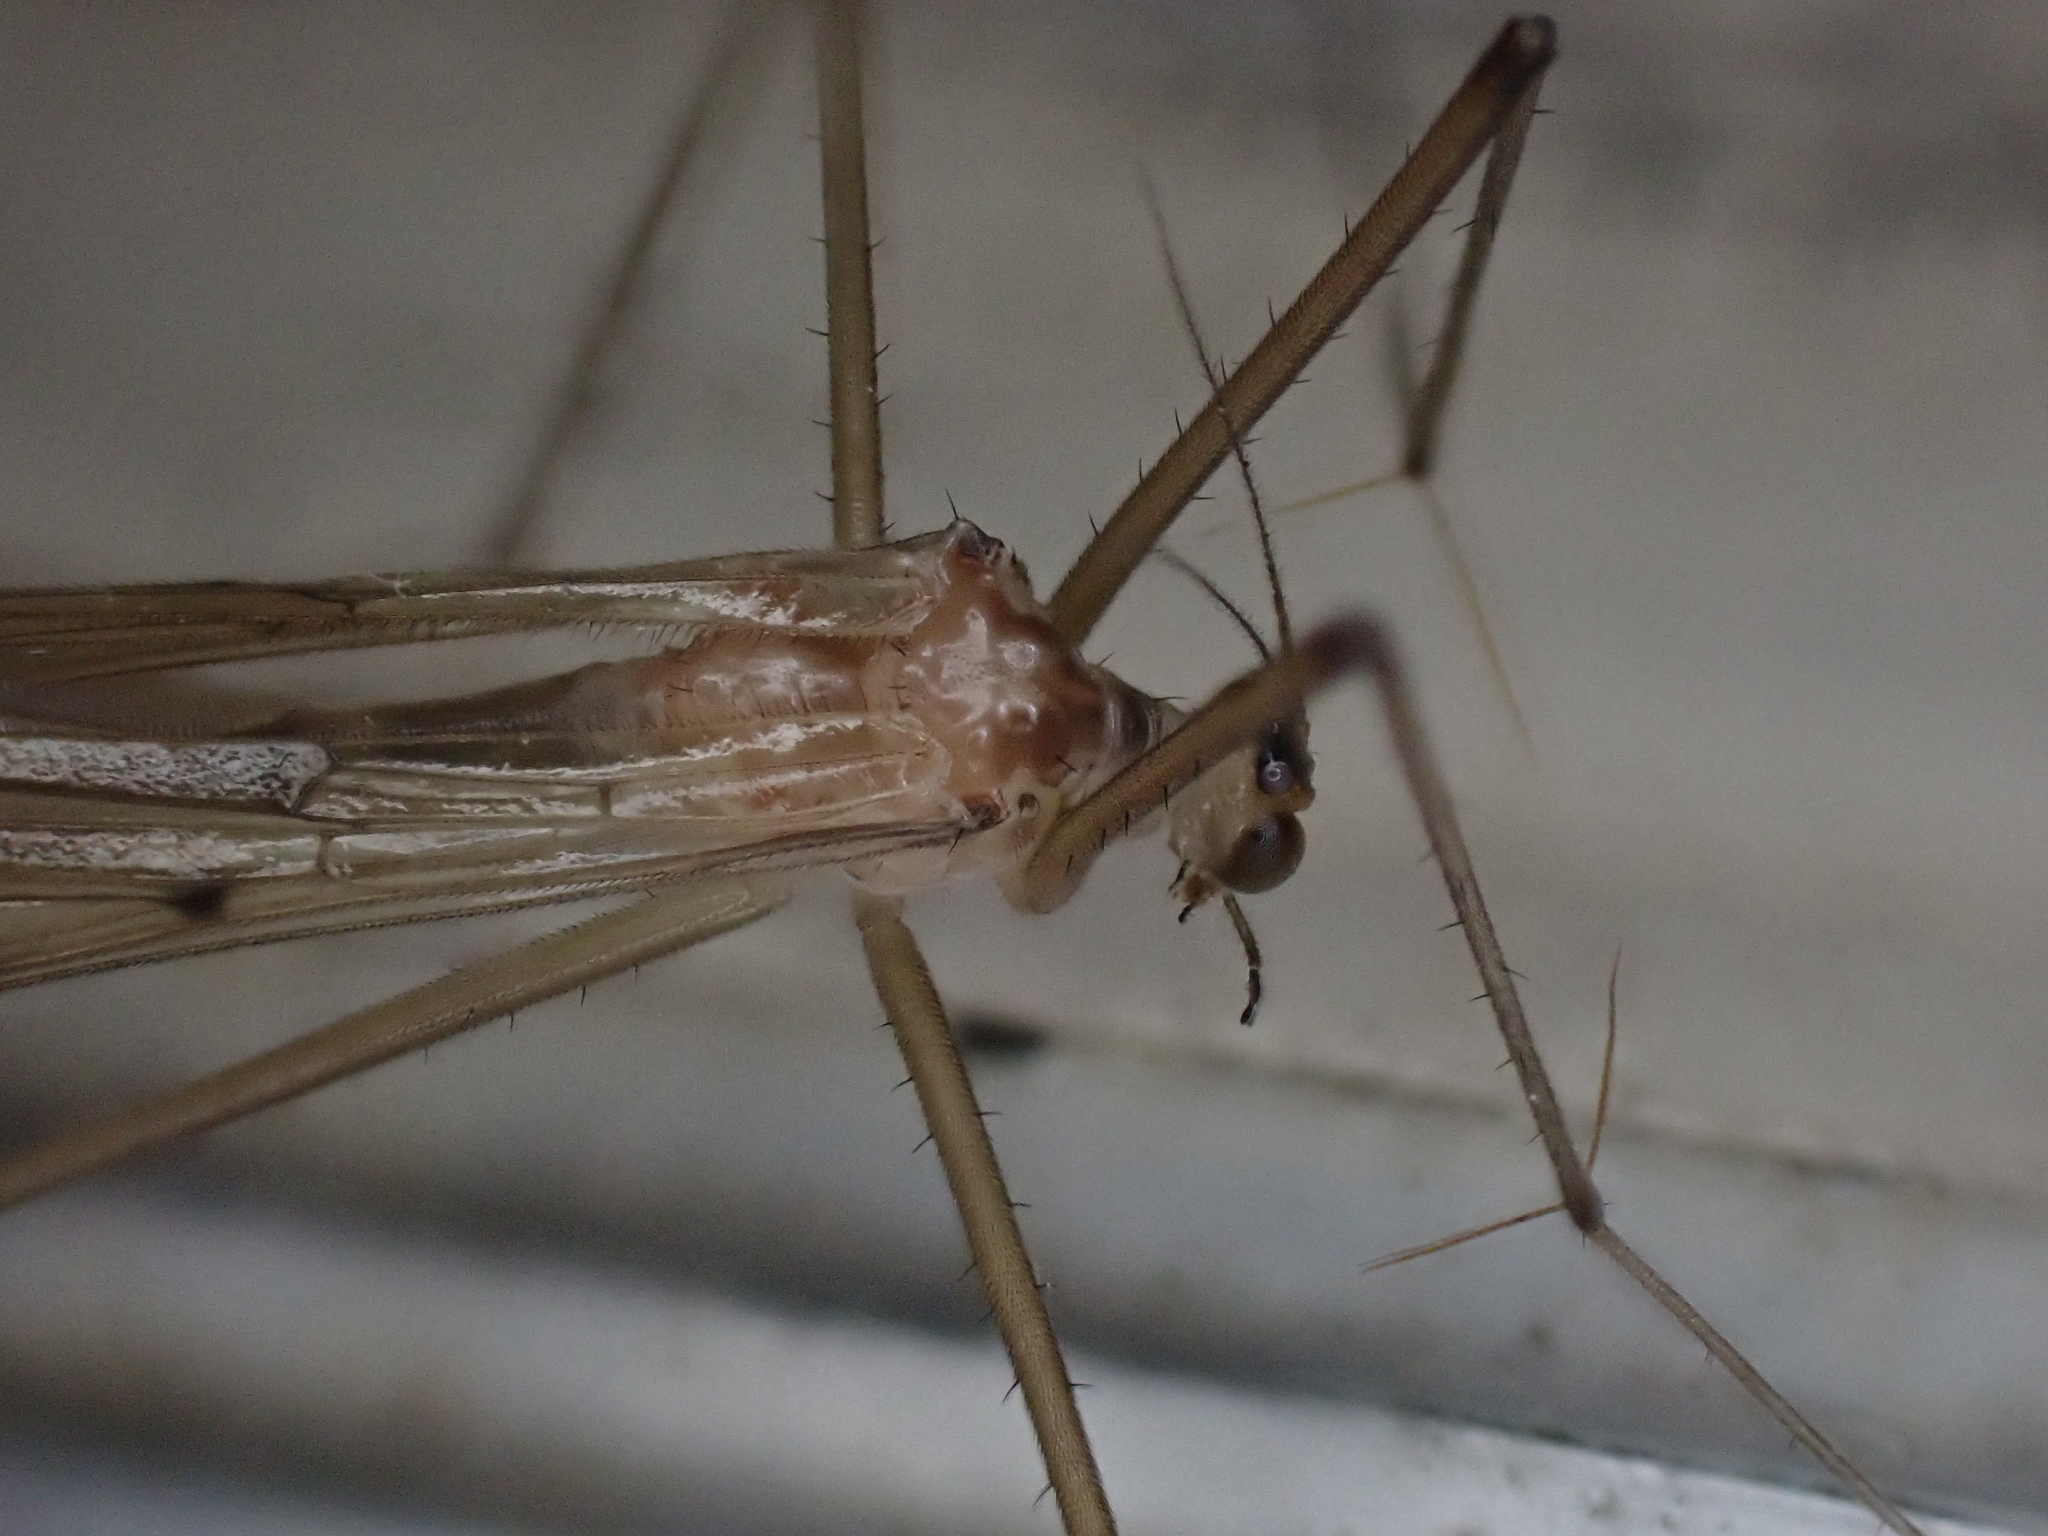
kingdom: Animalia
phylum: Arthropoda
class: Insecta
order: Mecoptera
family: Bittacidae
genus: Bittacus
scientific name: Bittacus strigosus
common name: Thin hangingfly
